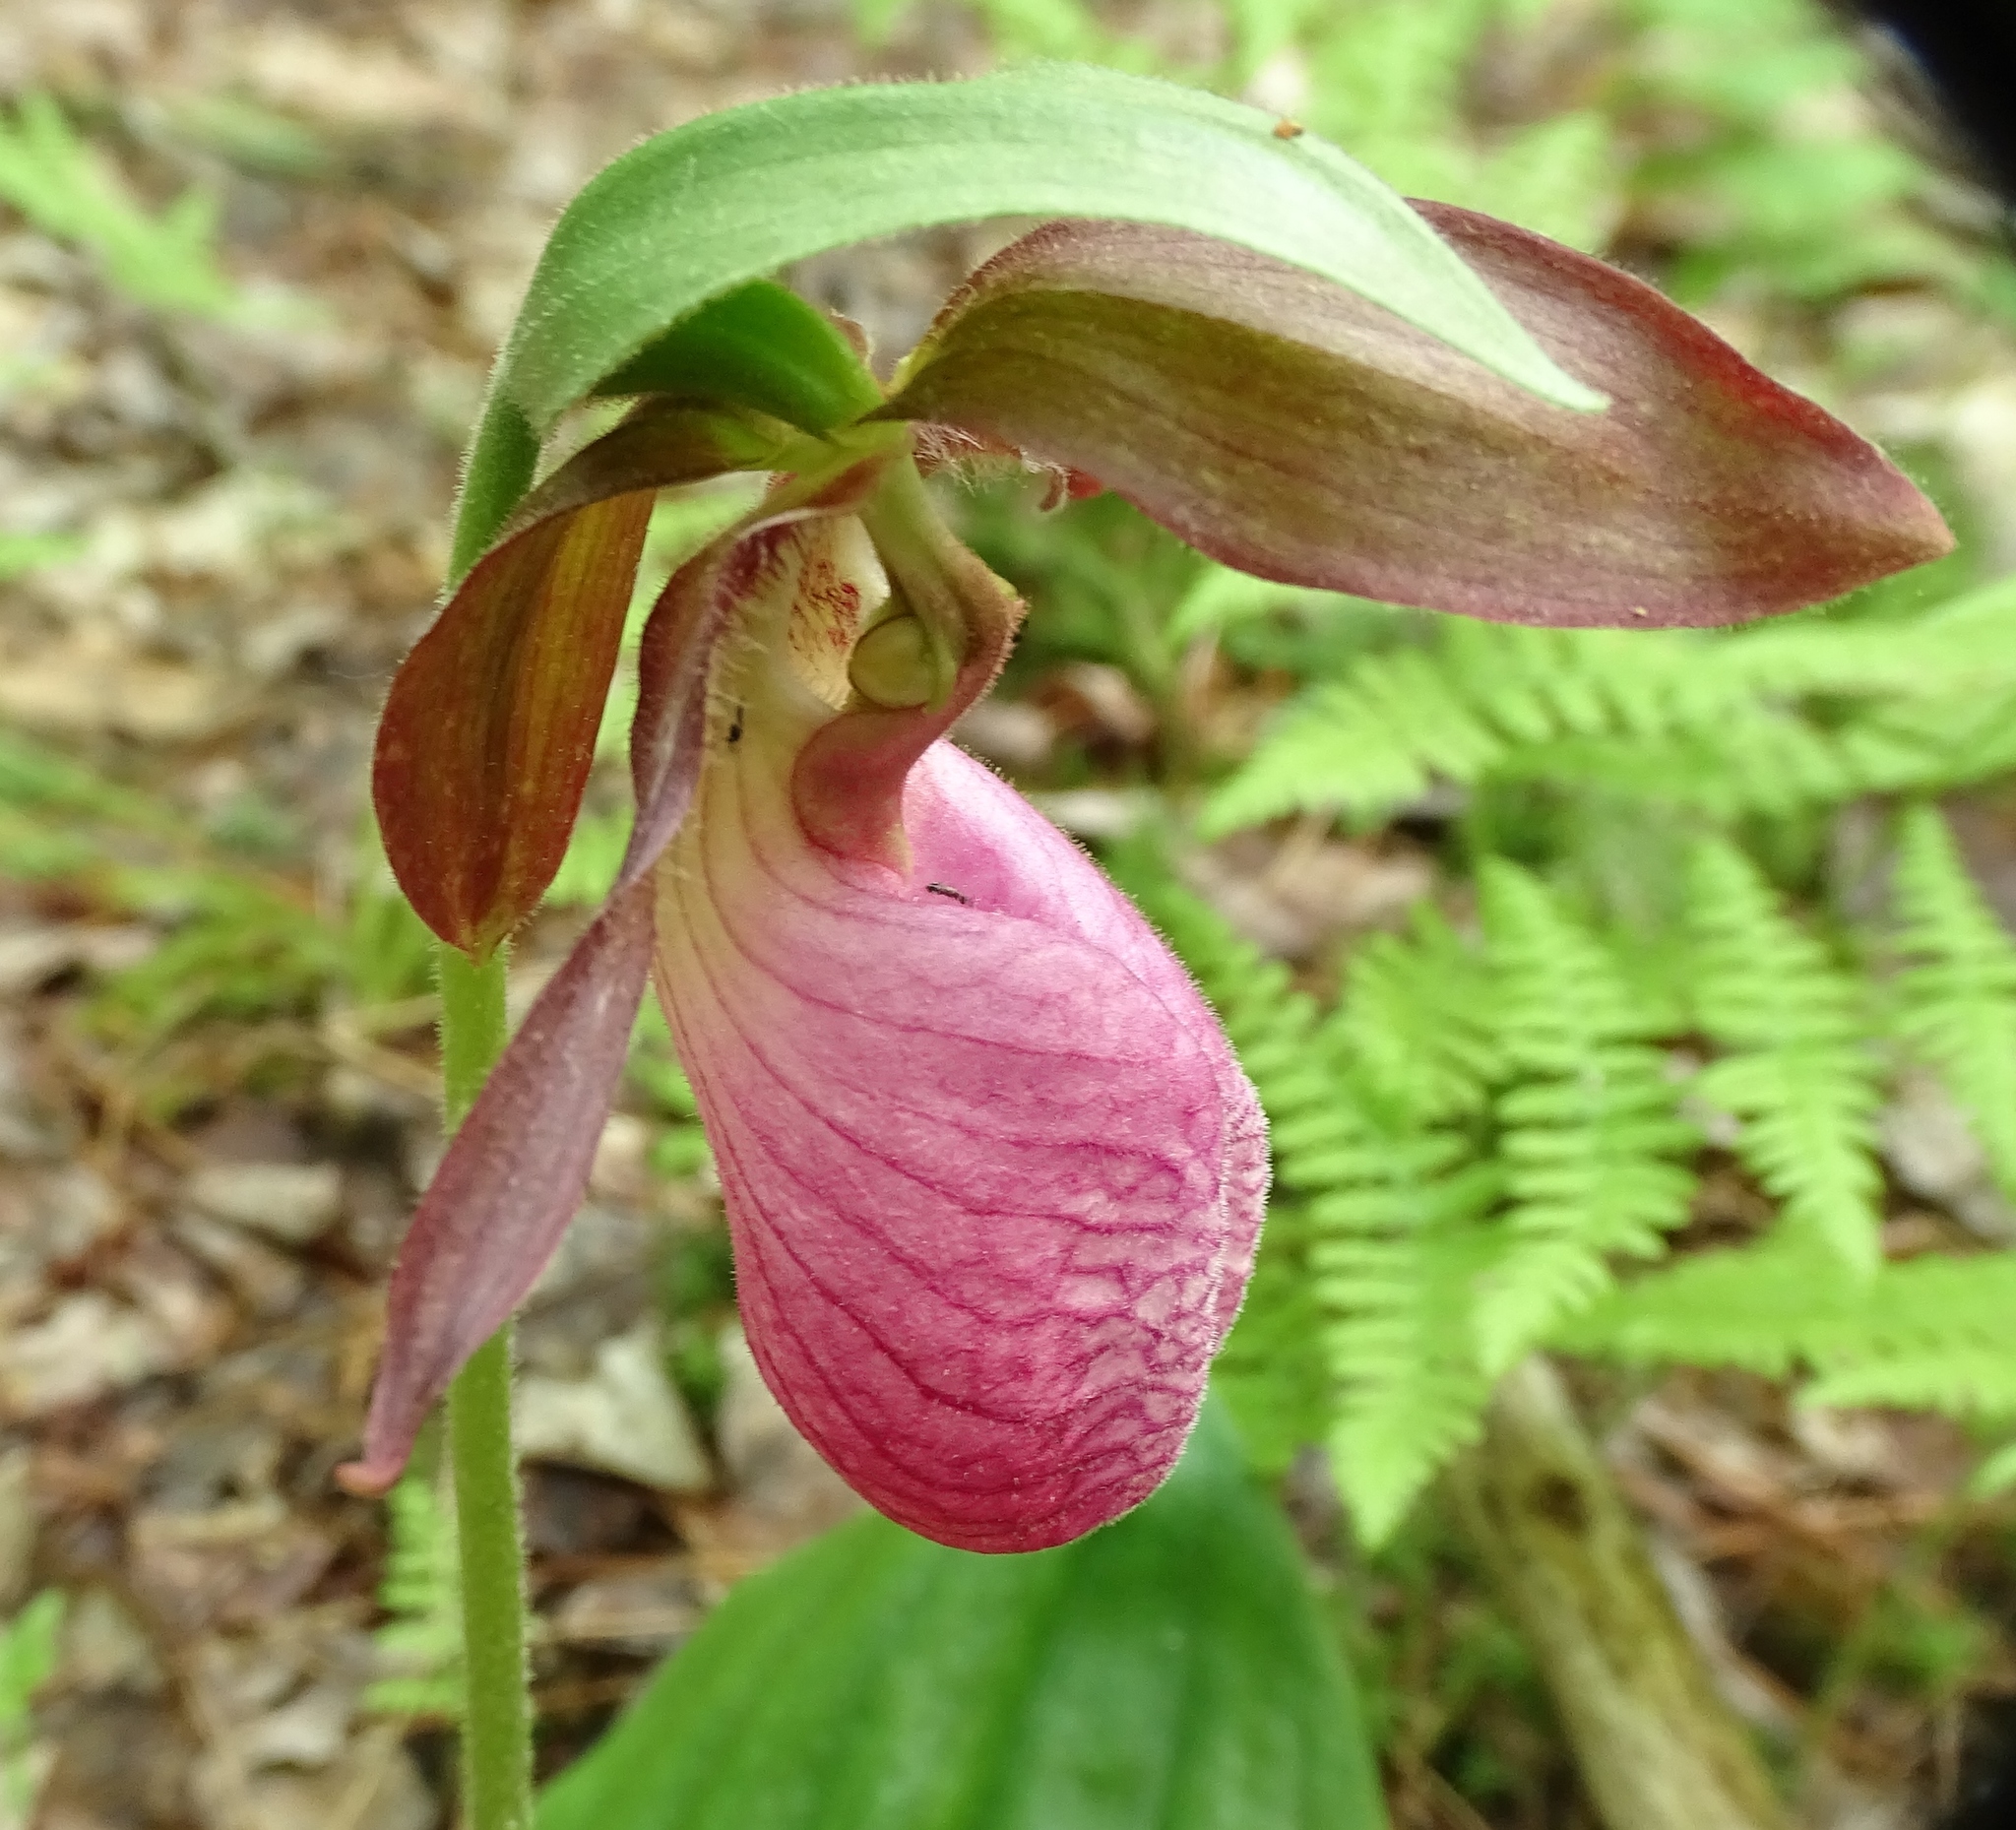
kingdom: Plantae
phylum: Tracheophyta
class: Liliopsida
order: Asparagales
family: Orchidaceae
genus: Cypripedium
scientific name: Cypripedium acaule
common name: Pink lady's-slipper
